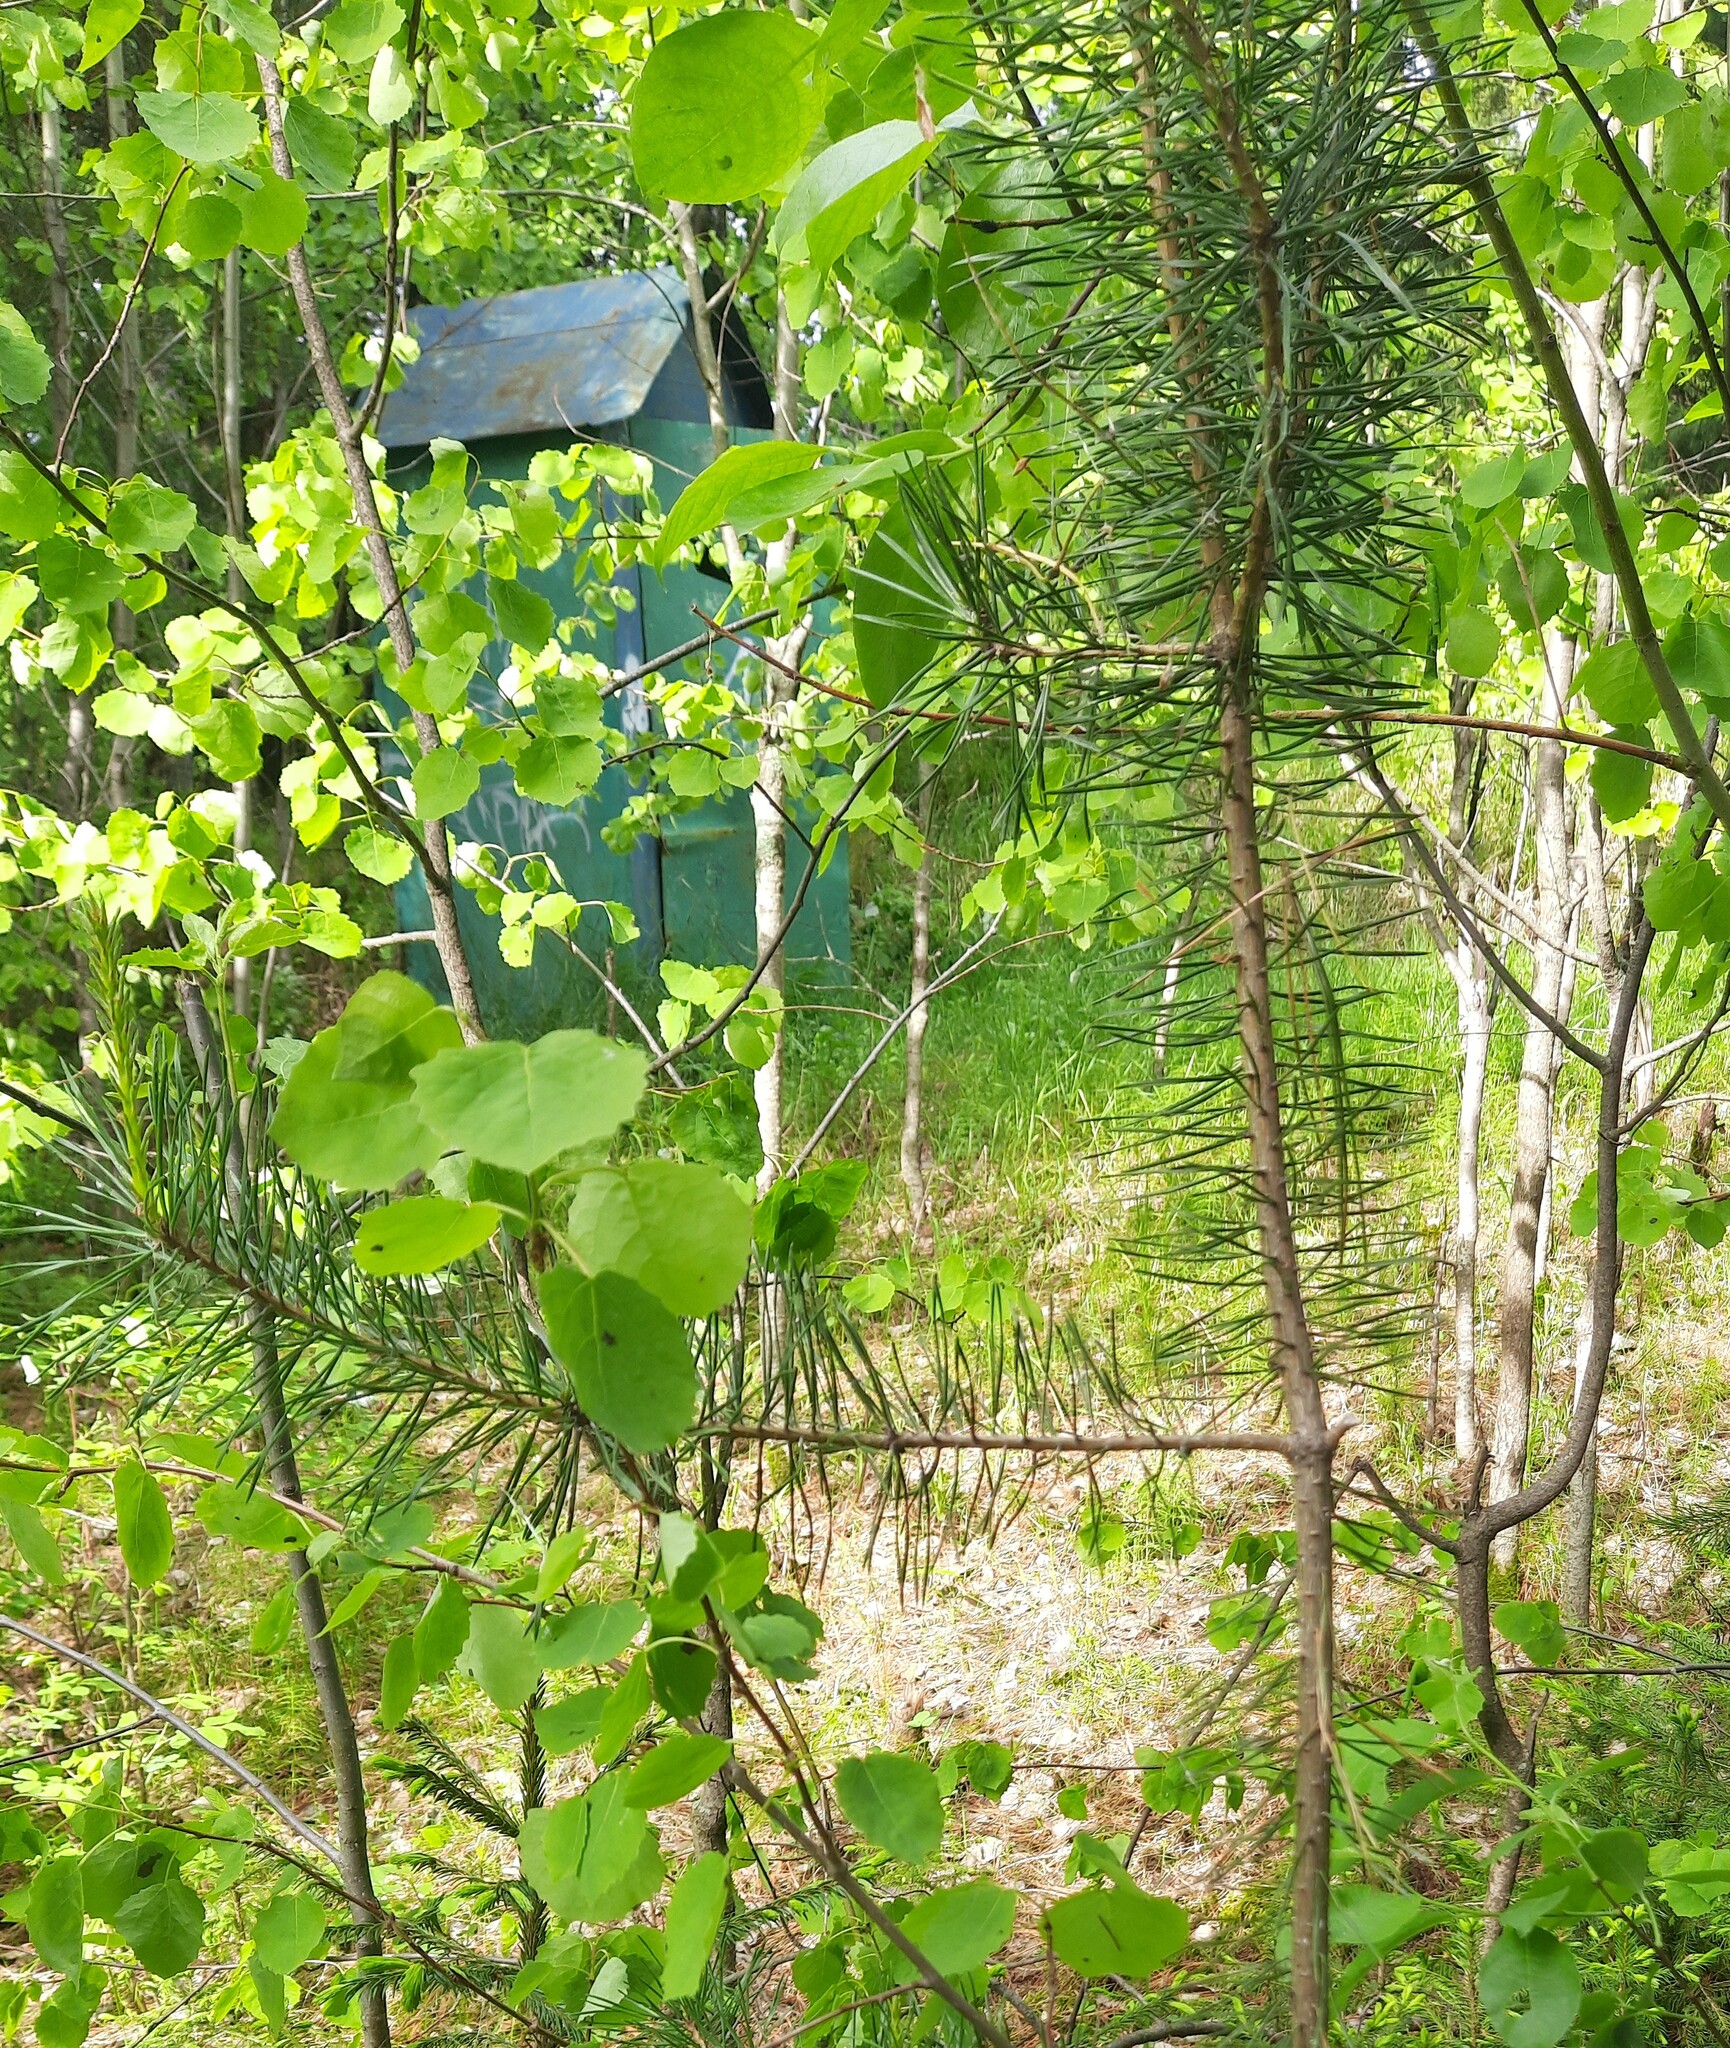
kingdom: Plantae
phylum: Tracheophyta
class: Pinopsida
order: Pinales
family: Pinaceae
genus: Pinus
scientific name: Pinus sylvestris
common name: Scots pine
